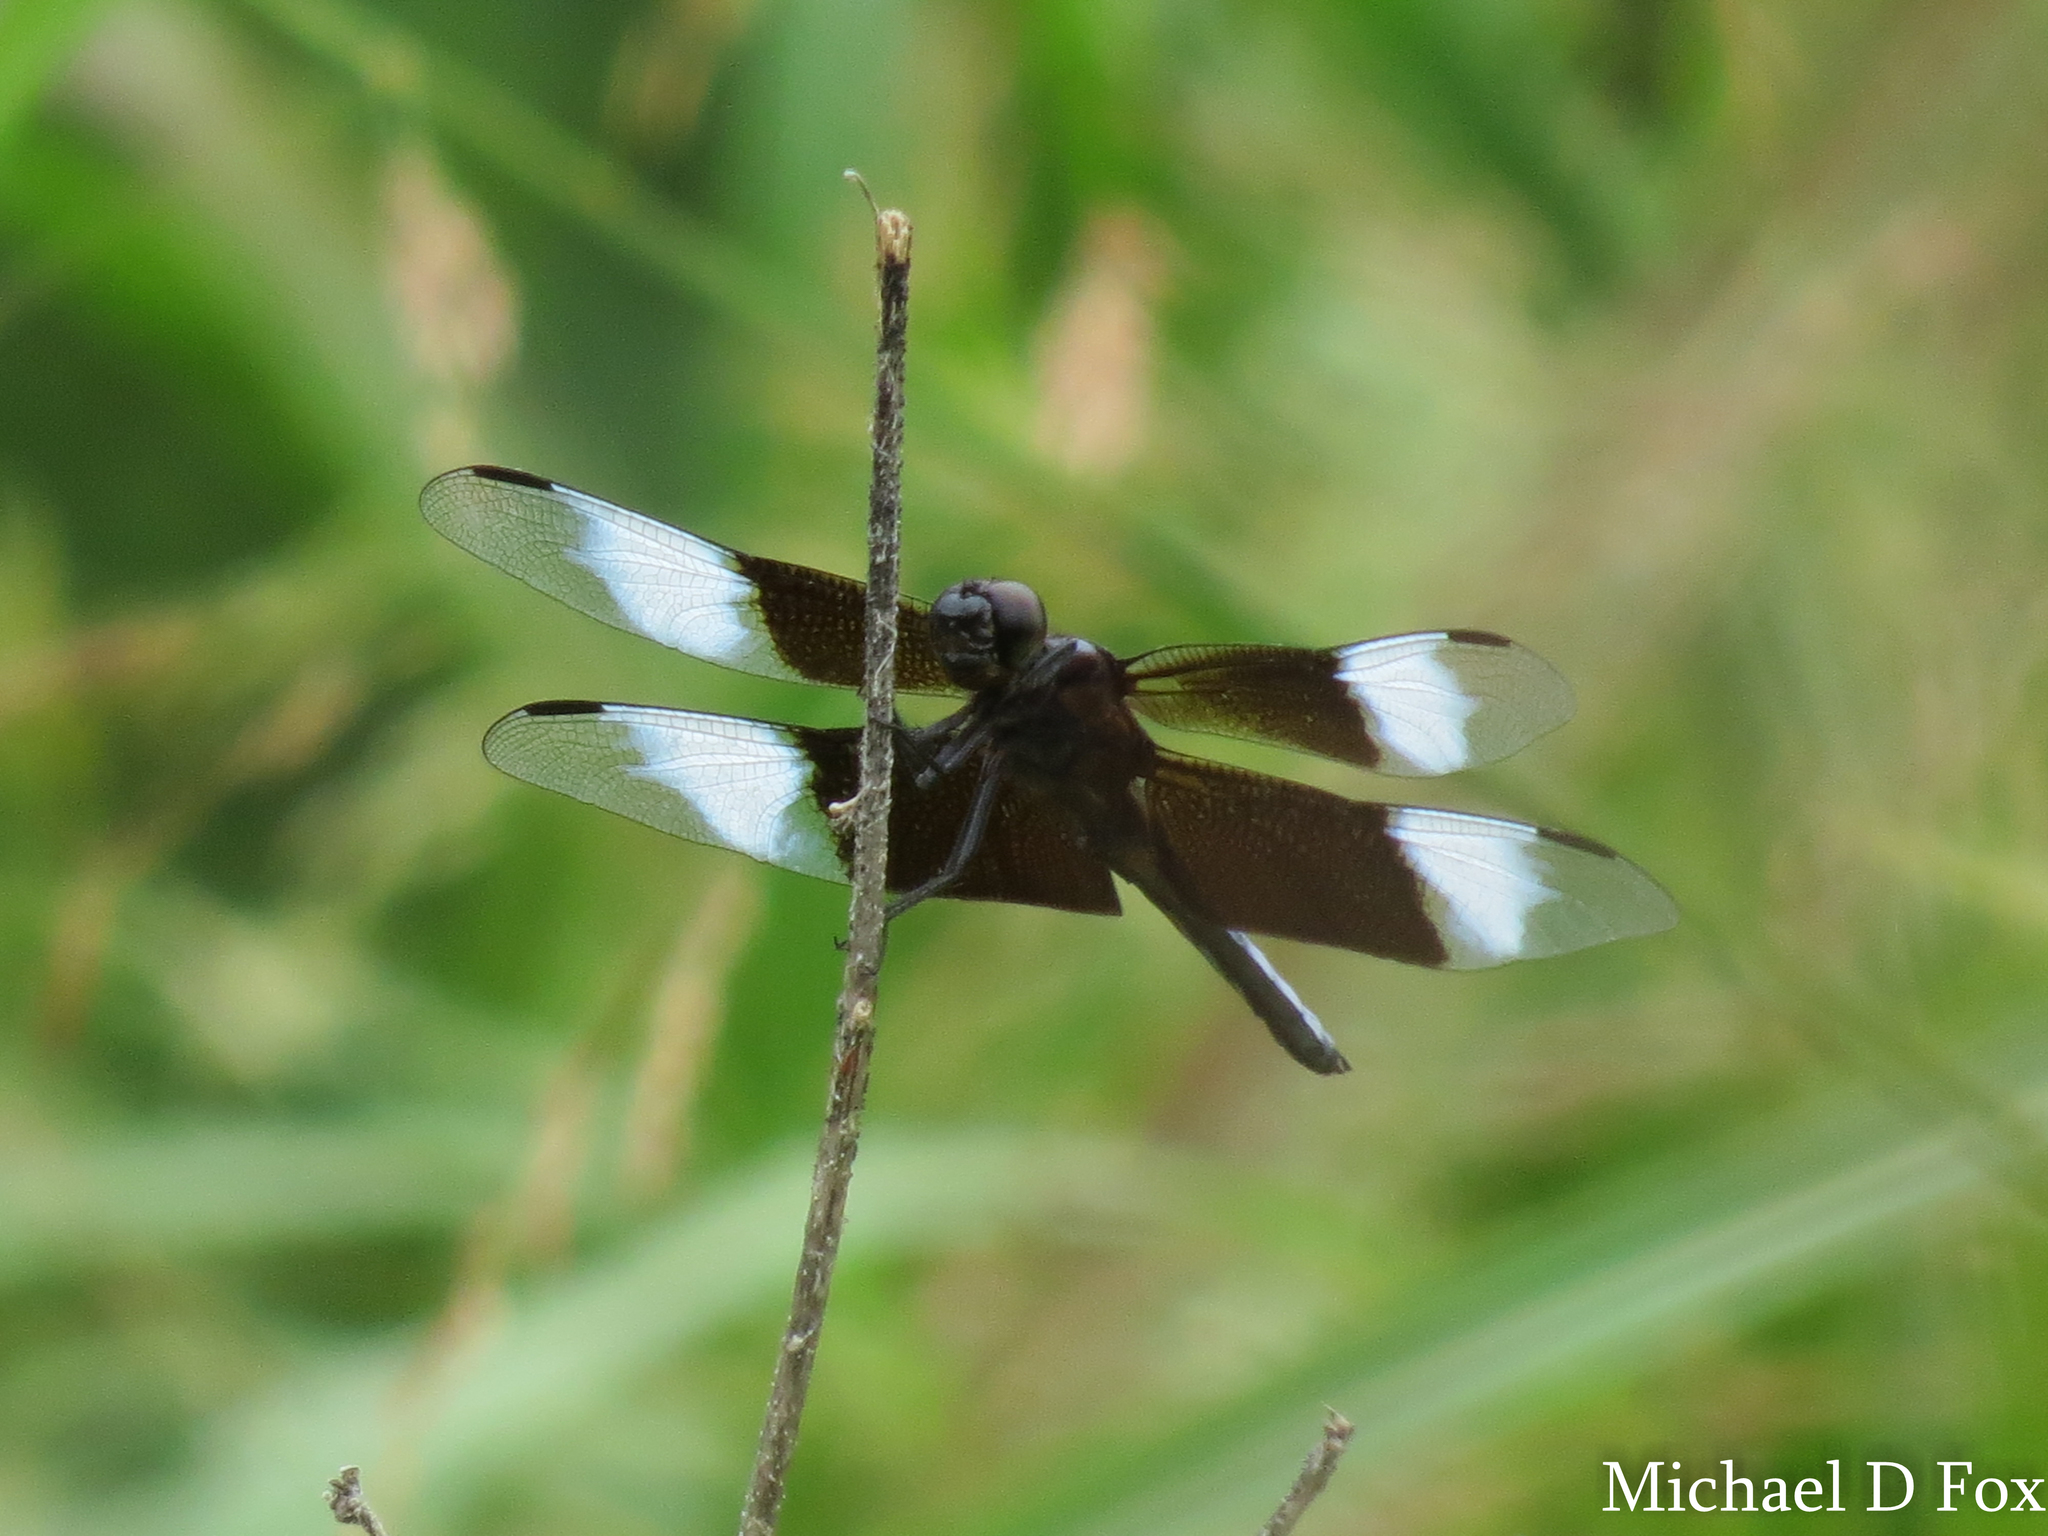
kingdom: Animalia
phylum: Arthropoda
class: Insecta
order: Odonata
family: Libellulidae
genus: Libellula
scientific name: Libellula luctuosa
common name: Widow skimmer
